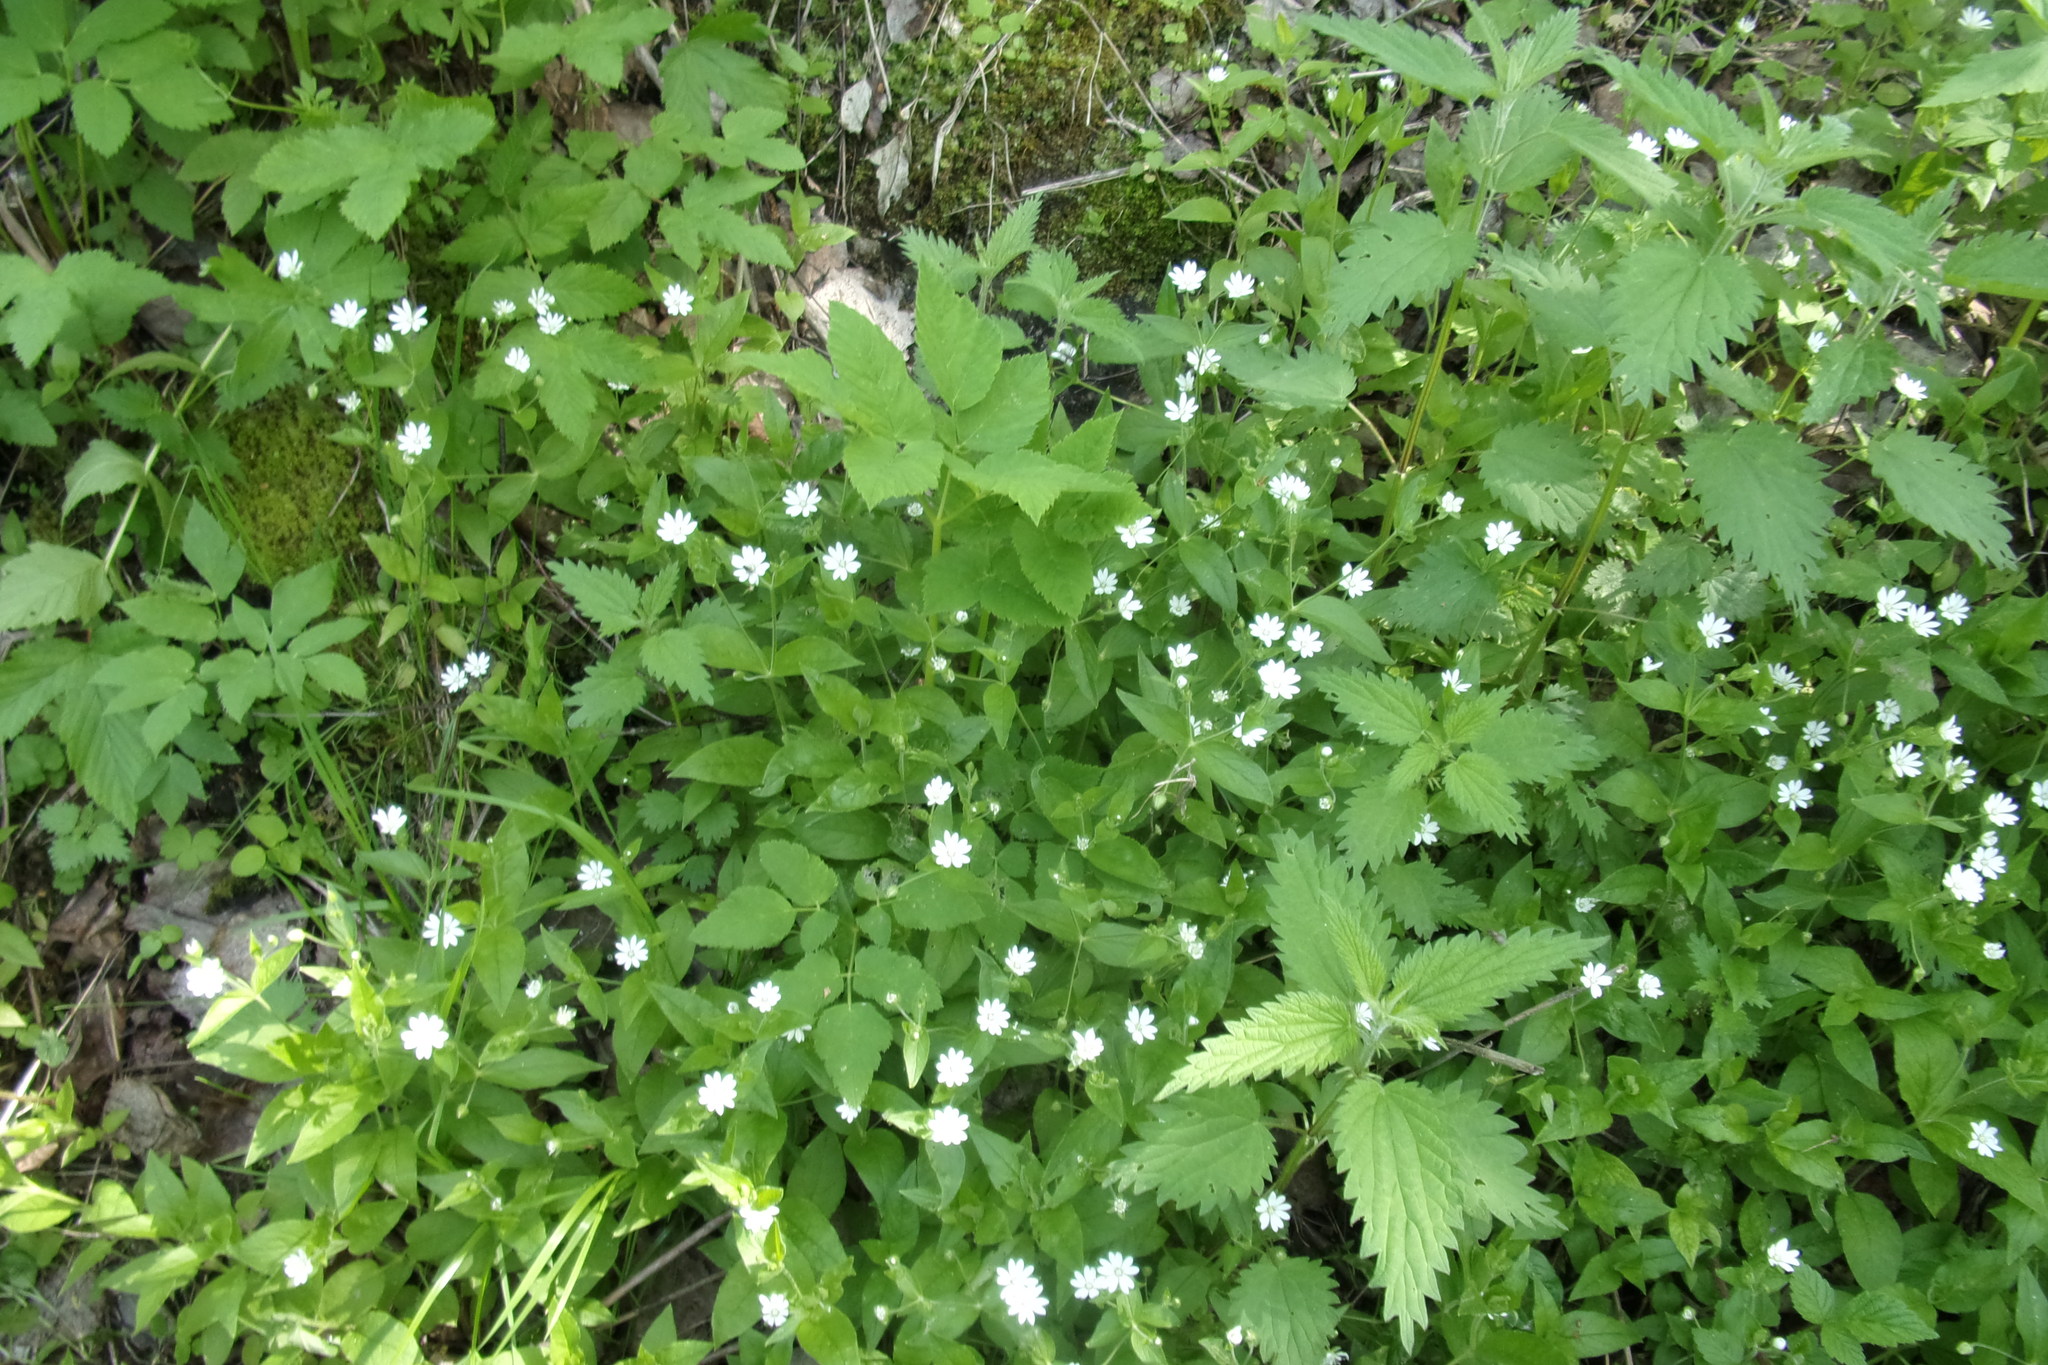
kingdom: Plantae
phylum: Tracheophyta
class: Magnoliopsida
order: Caryophyllales
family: Caryophyllaceae
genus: Stellaria
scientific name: Stellaria bungeana
